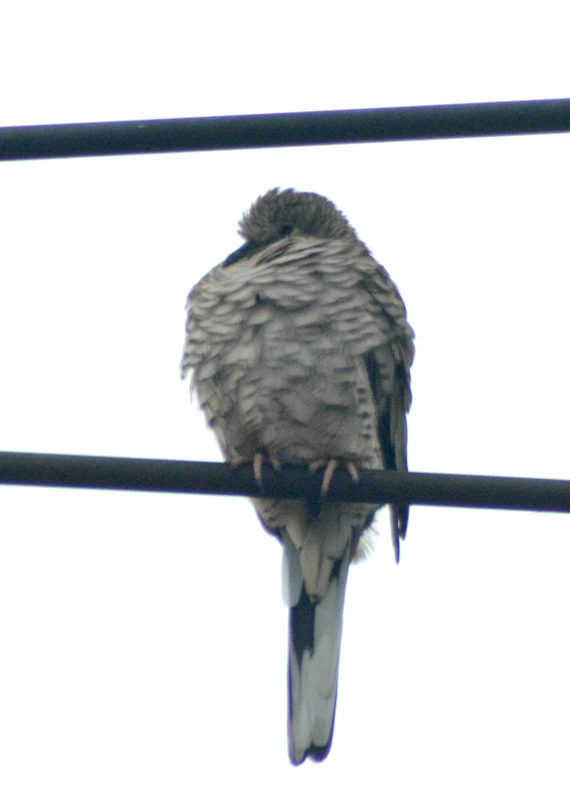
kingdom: Animalia
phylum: Chordata
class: Aves
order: Columbiformes
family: Columbidae
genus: Columbina
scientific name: Columbina inca
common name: Inca dove
